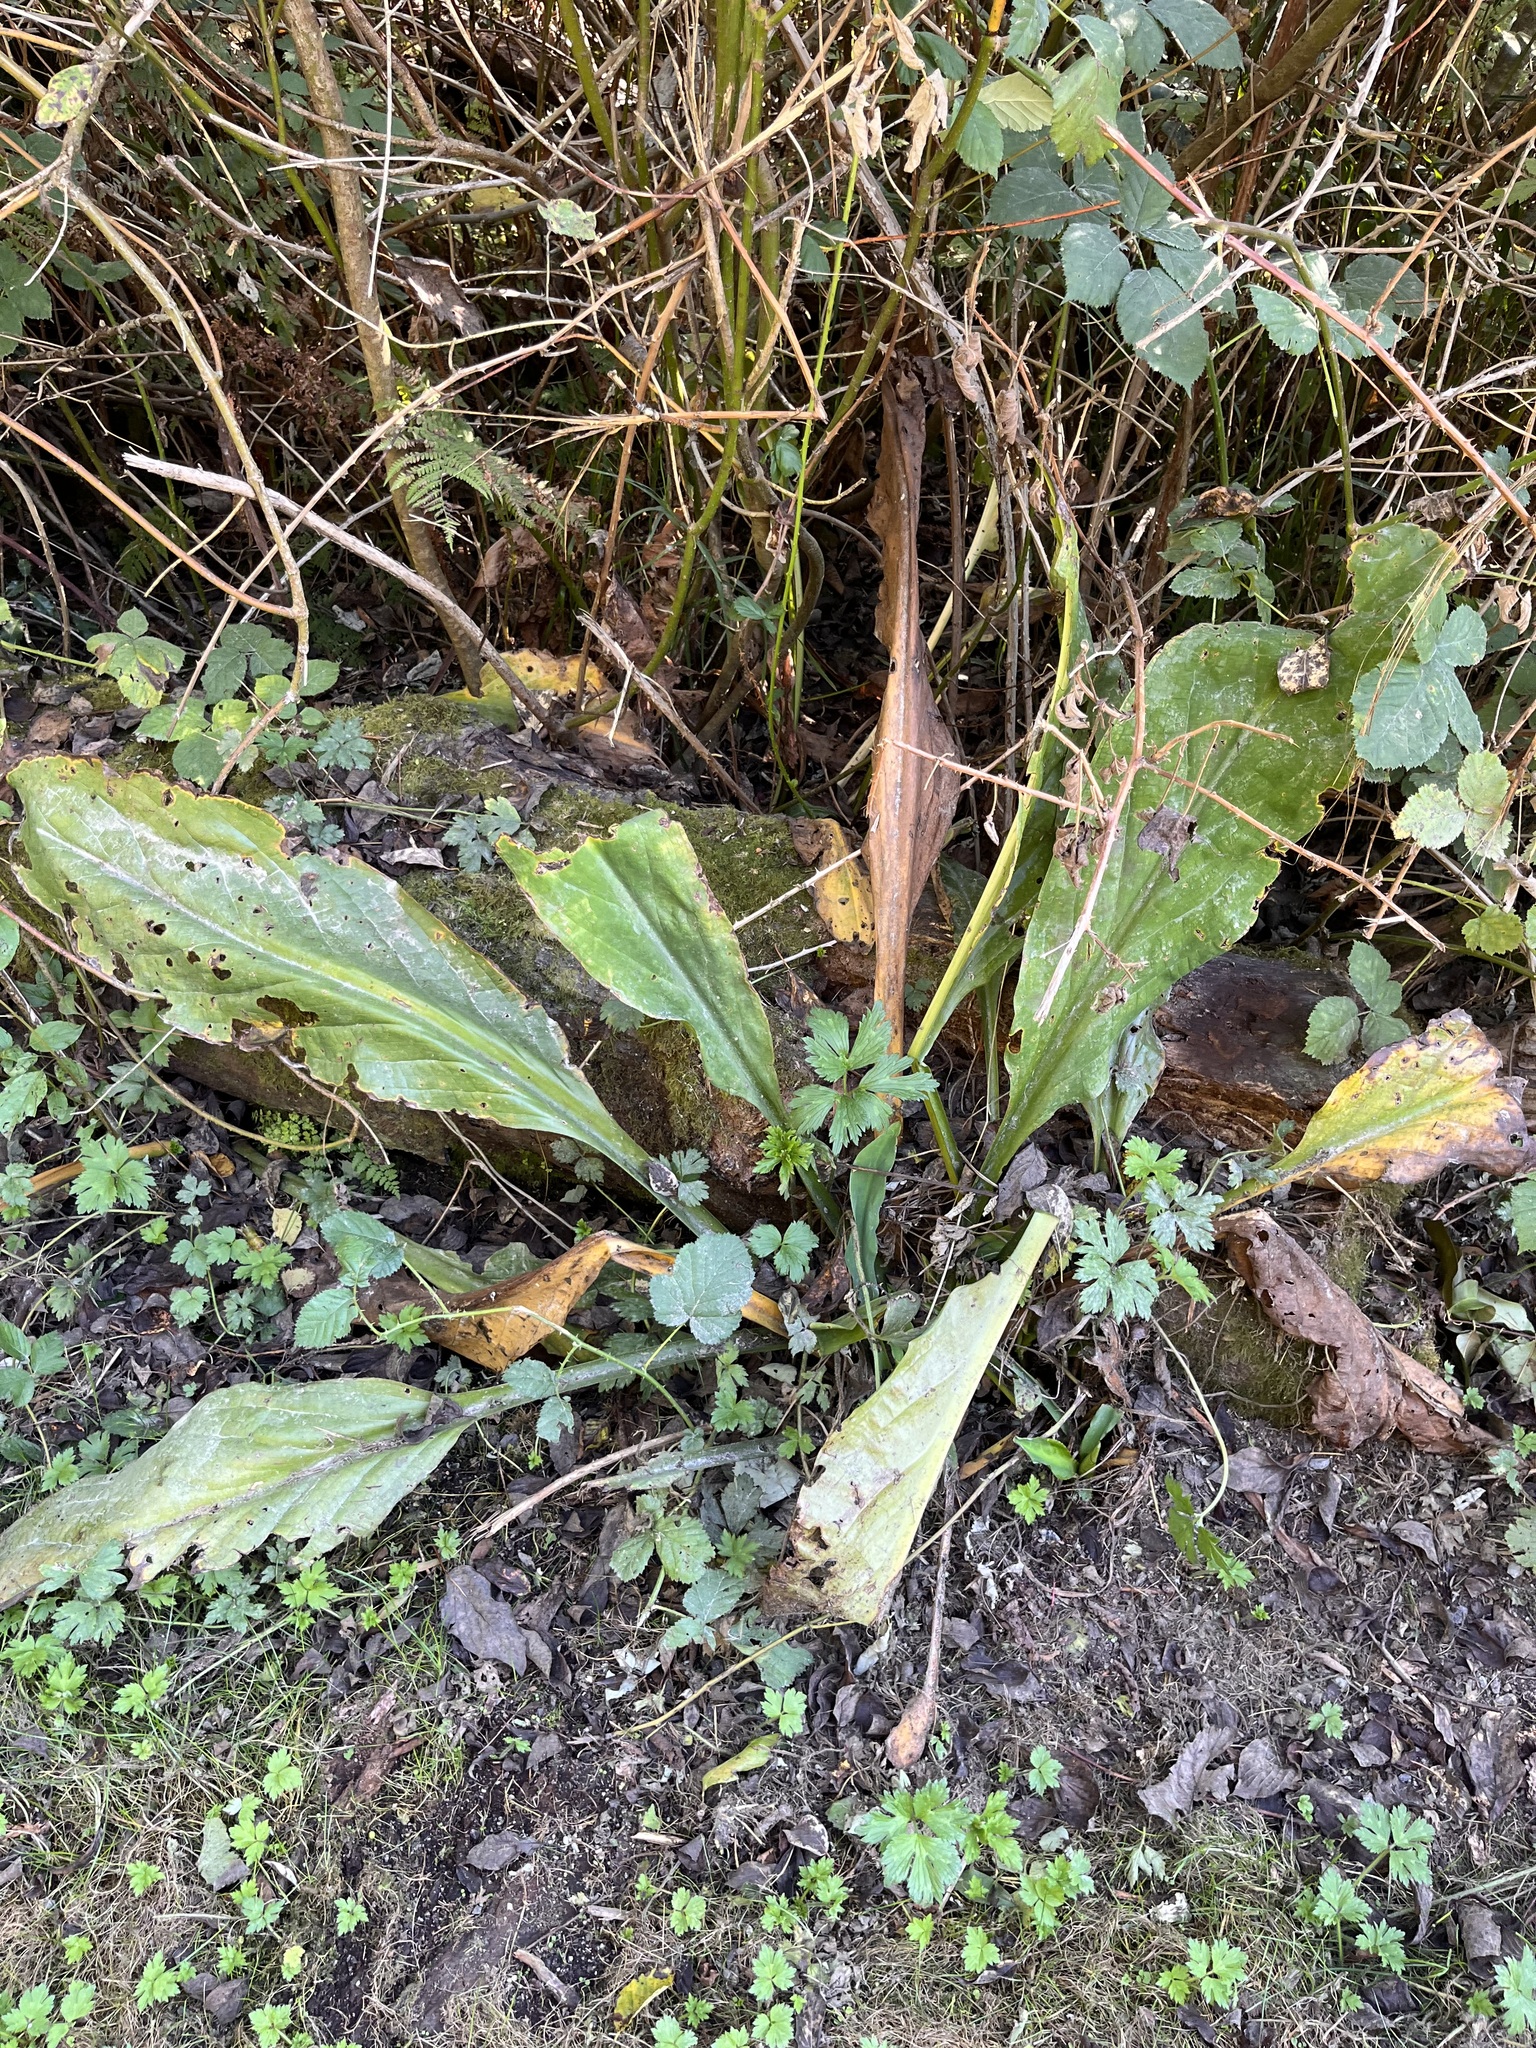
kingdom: Plantae
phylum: Tracheophyta
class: Liliopsida
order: Alismatales
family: Araceae
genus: Lysichiton
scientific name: Lysichiton americanus
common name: American skunk cabbage
